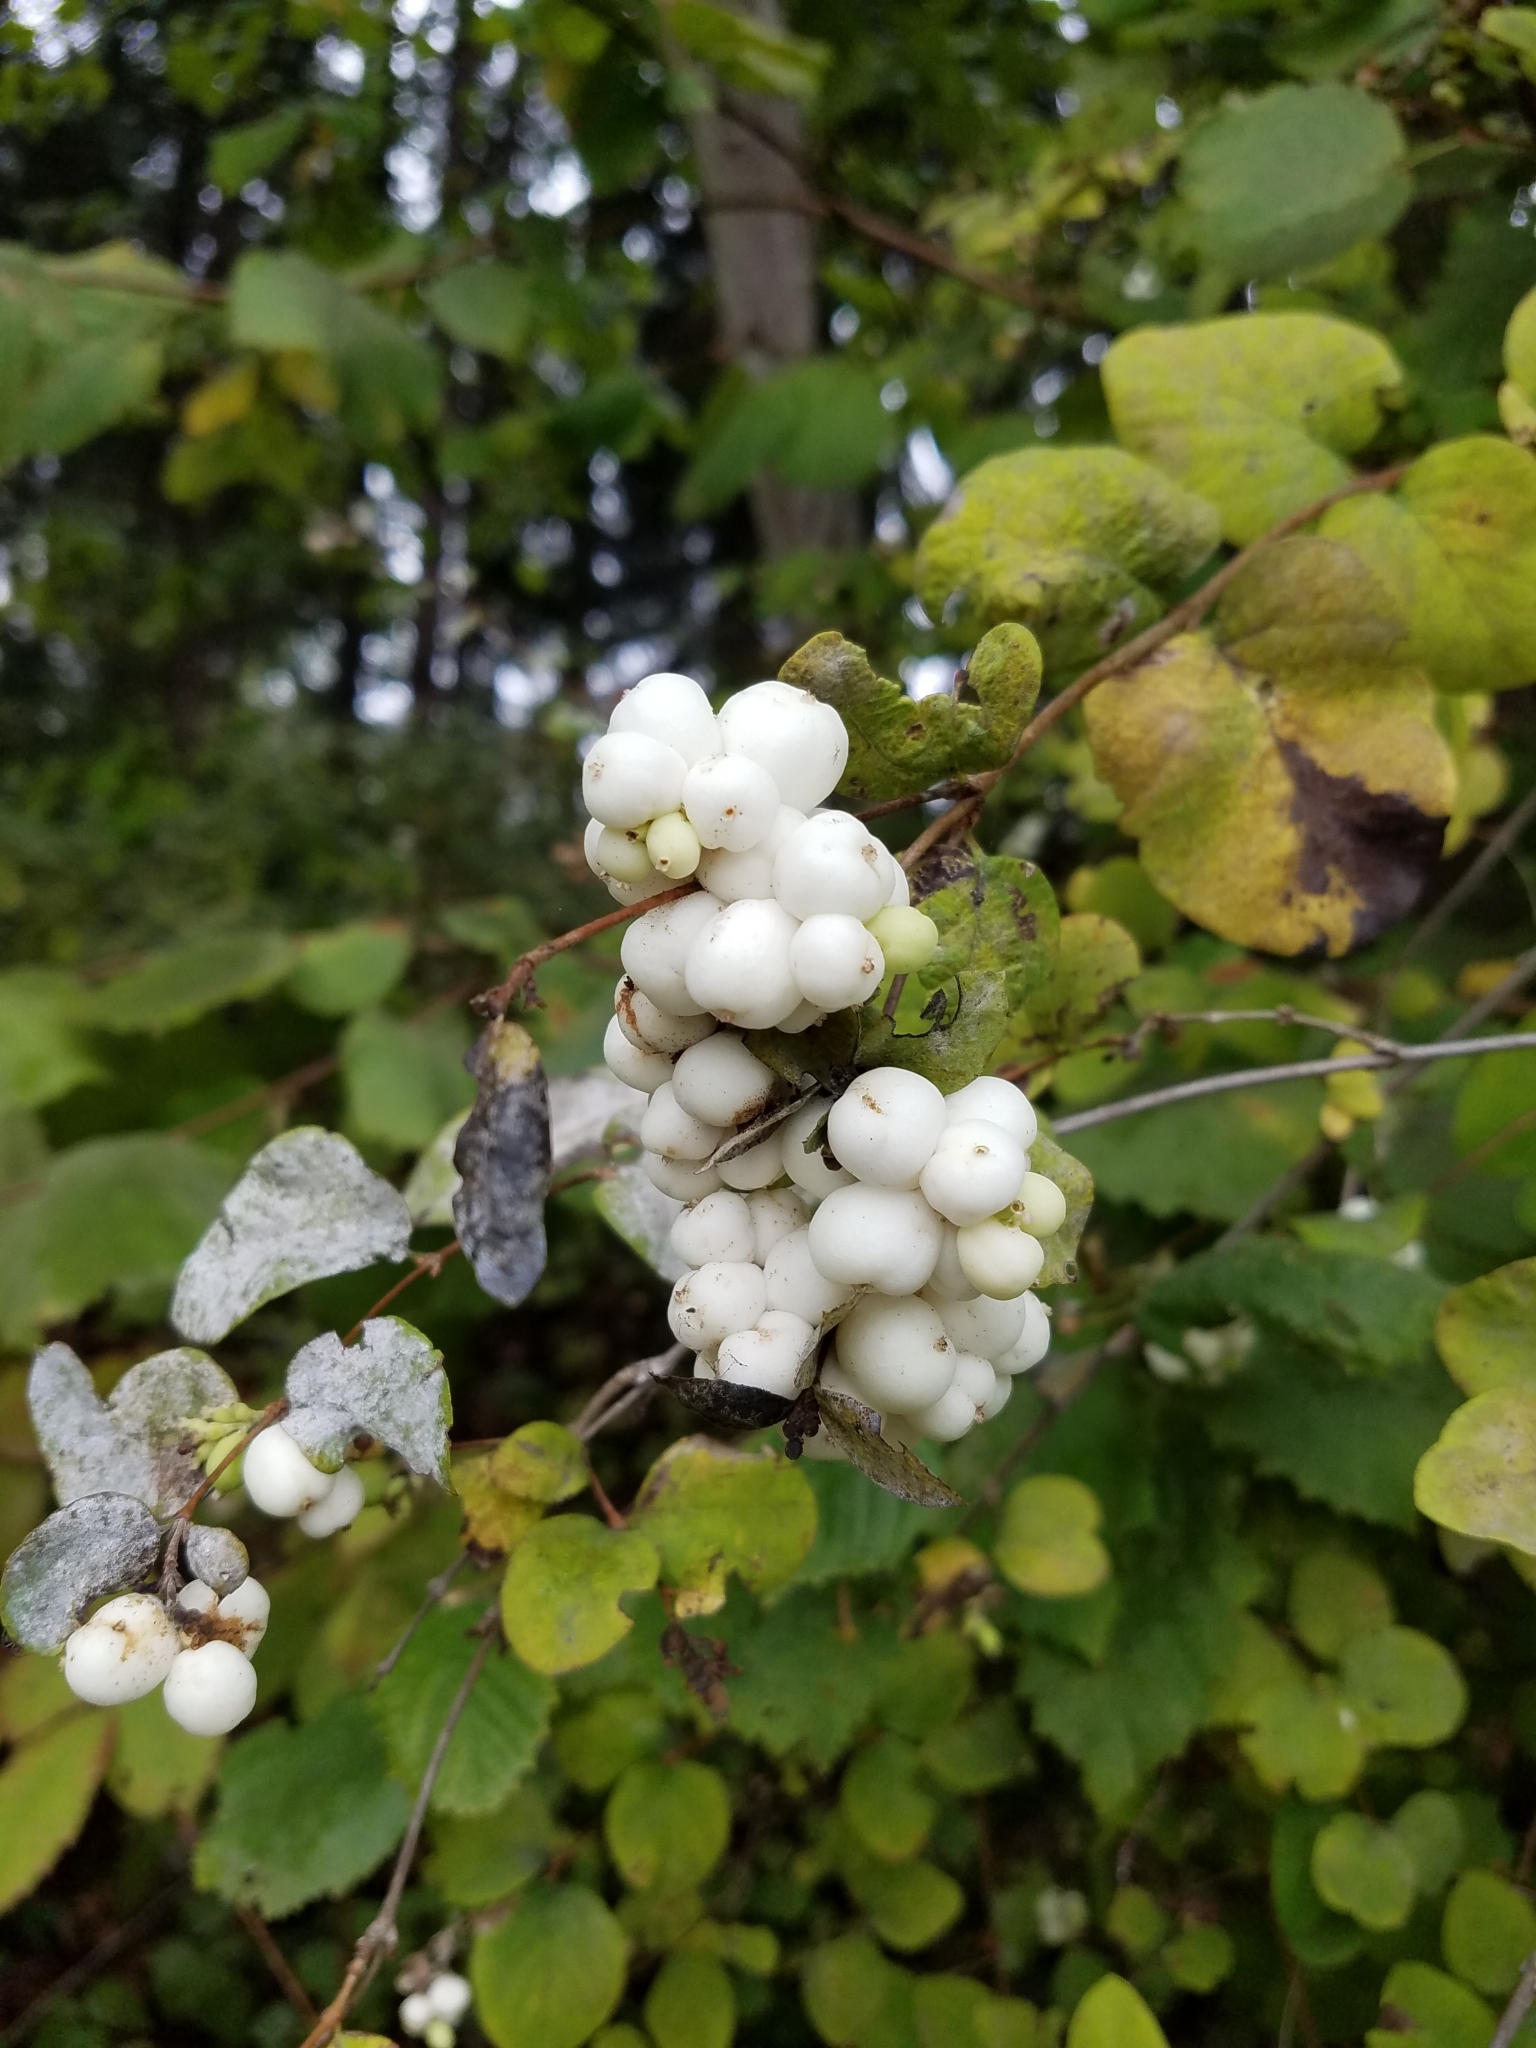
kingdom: Plantae
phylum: Tracheophyta
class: Magnoliopsida
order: Dipsacales
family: Caprifoliaceae
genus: Symphoricarpos
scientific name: Symphoricarpos albus
